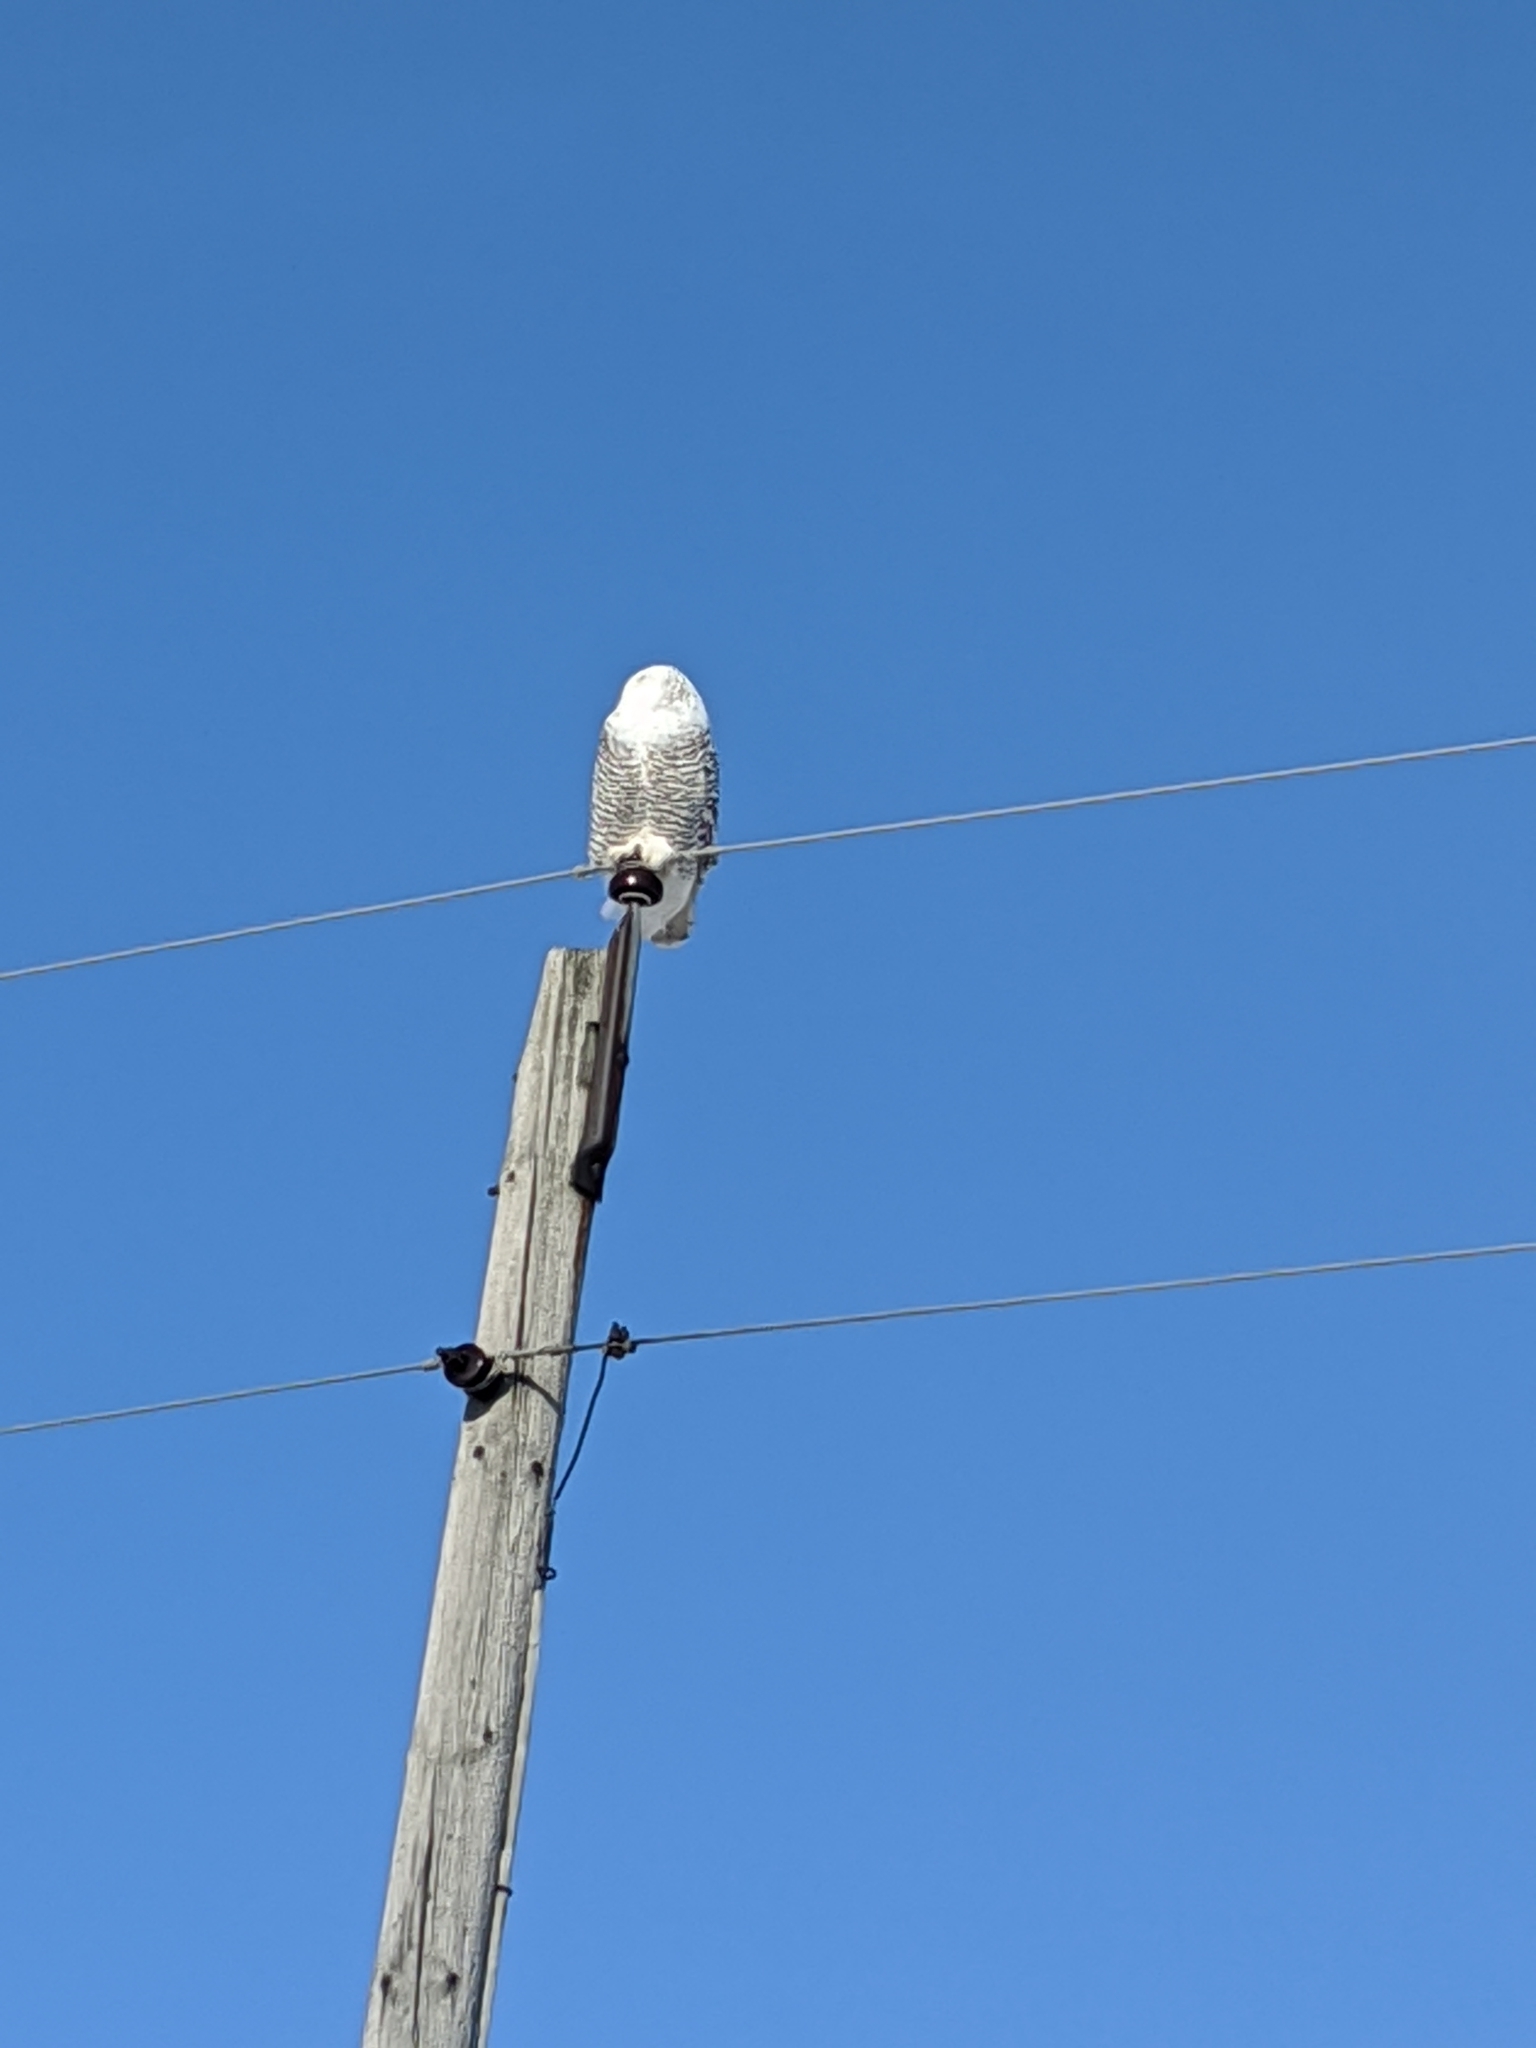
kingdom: Animalia
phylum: Chordata
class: Aves
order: Strigiformes
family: Strigidae
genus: Bubo
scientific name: Bubo scandiacus
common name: Snowy owl
